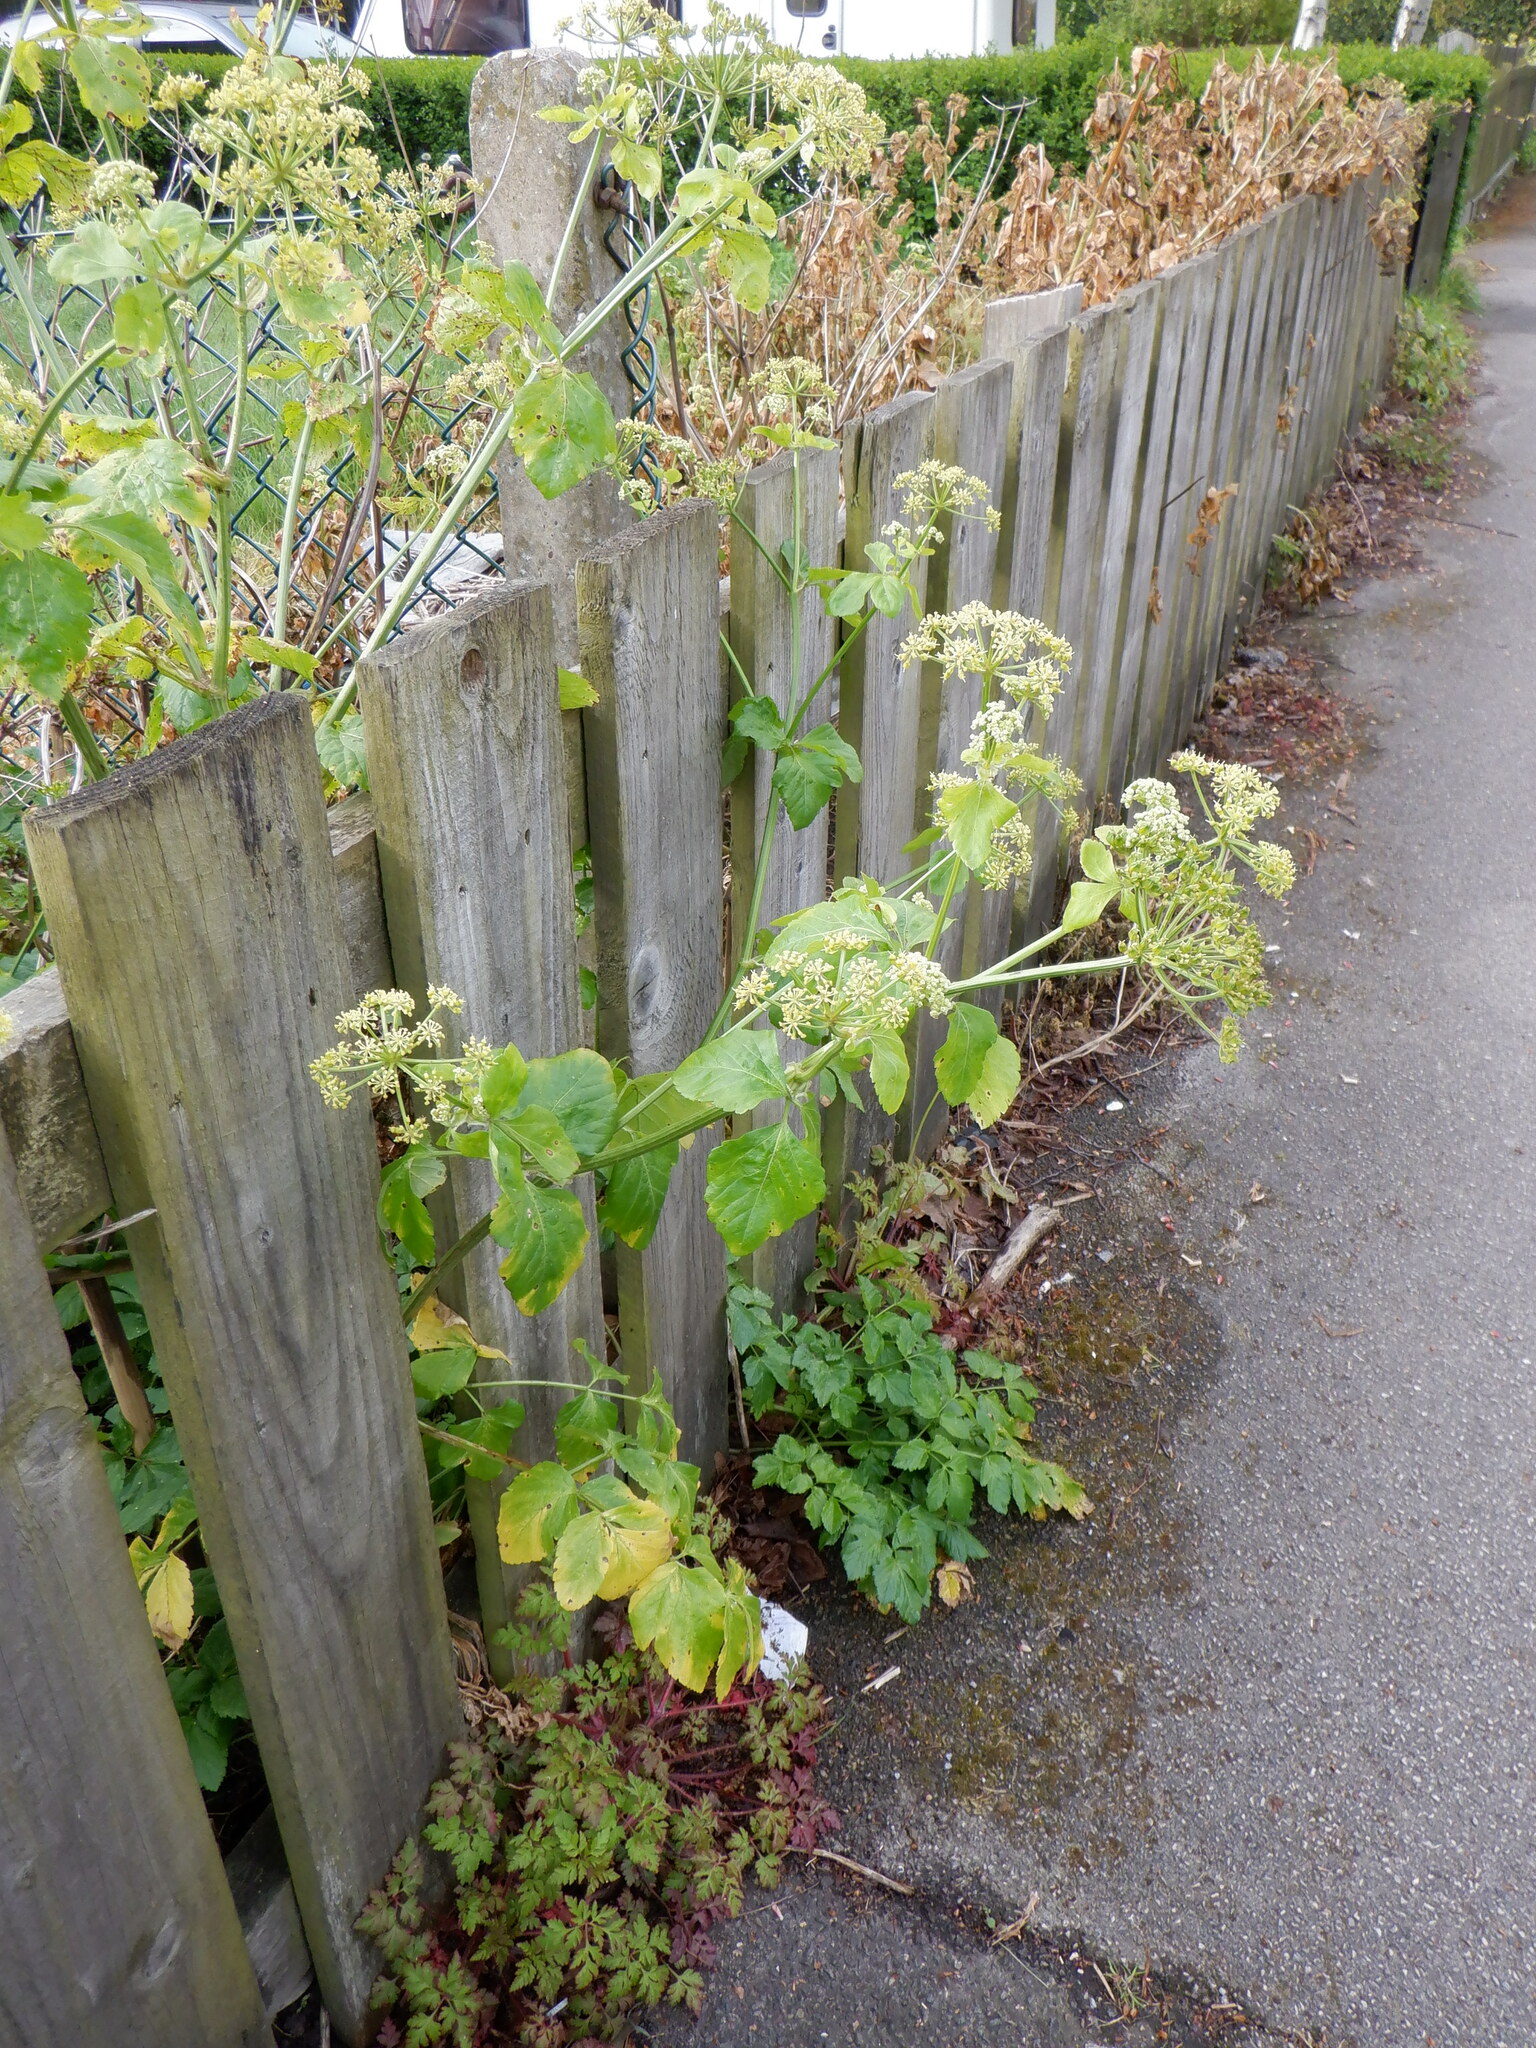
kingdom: Plantae
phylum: Tracheophyta
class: Magnoliopsida
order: Apiales
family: Apiaceae
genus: Smyrnium
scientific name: Smyrnium olusatrum
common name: Alexanders
